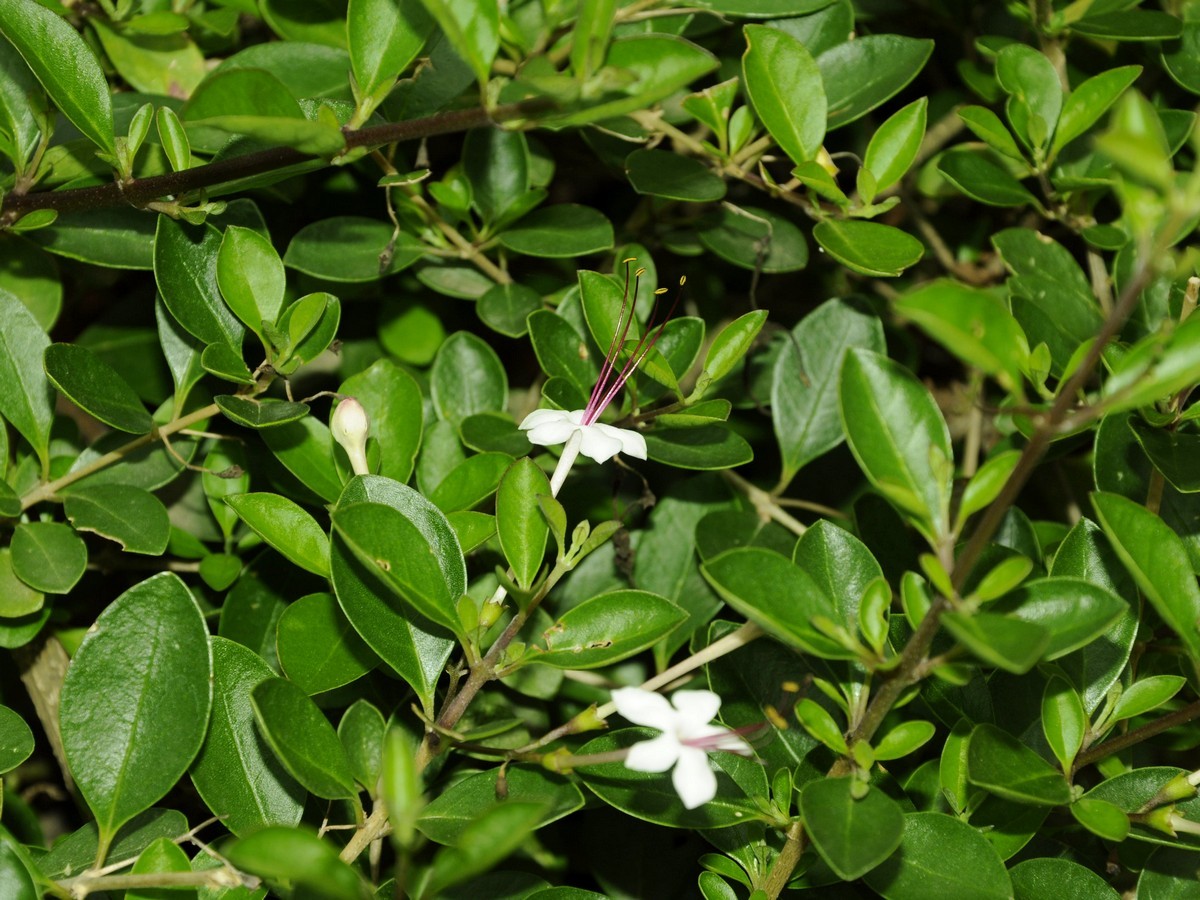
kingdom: Plantae
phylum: Tracheophyta
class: Magnoliopsida
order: Lamiales
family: Lamiaceae
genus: Volkameria
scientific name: Volkameria inermis
